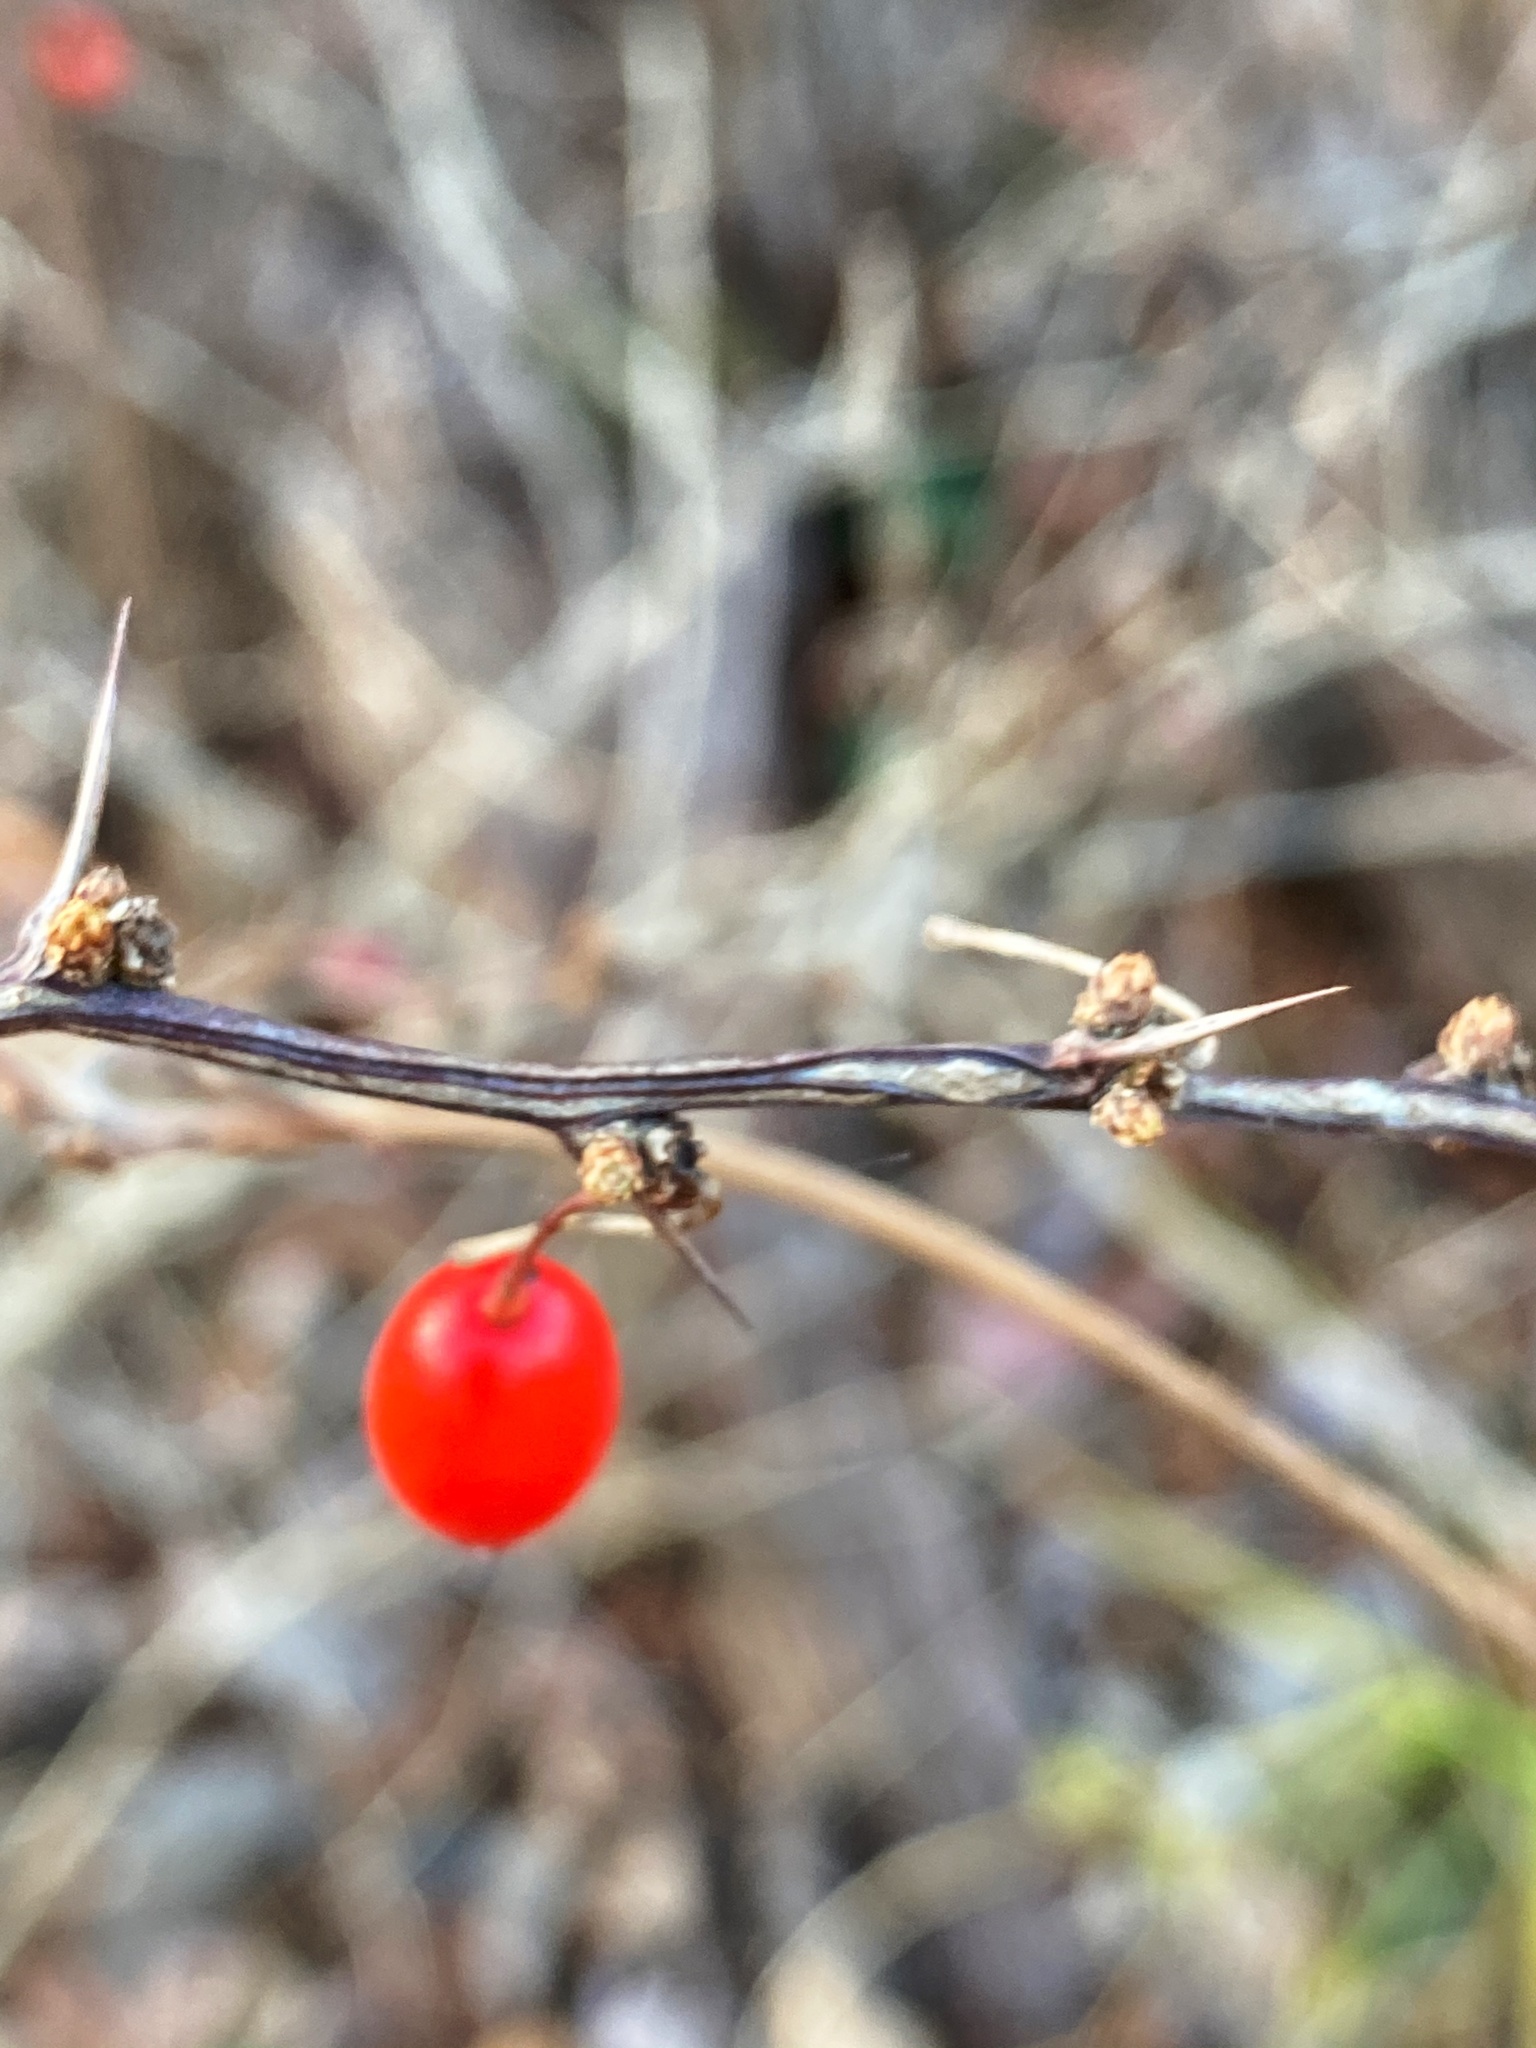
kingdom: Plantae
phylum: Tracheophyta
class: Magnoliopsida
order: Ranunculales
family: Berberidaceae
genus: Berberis
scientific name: Berberis thunbergii
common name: Japanese barberry
